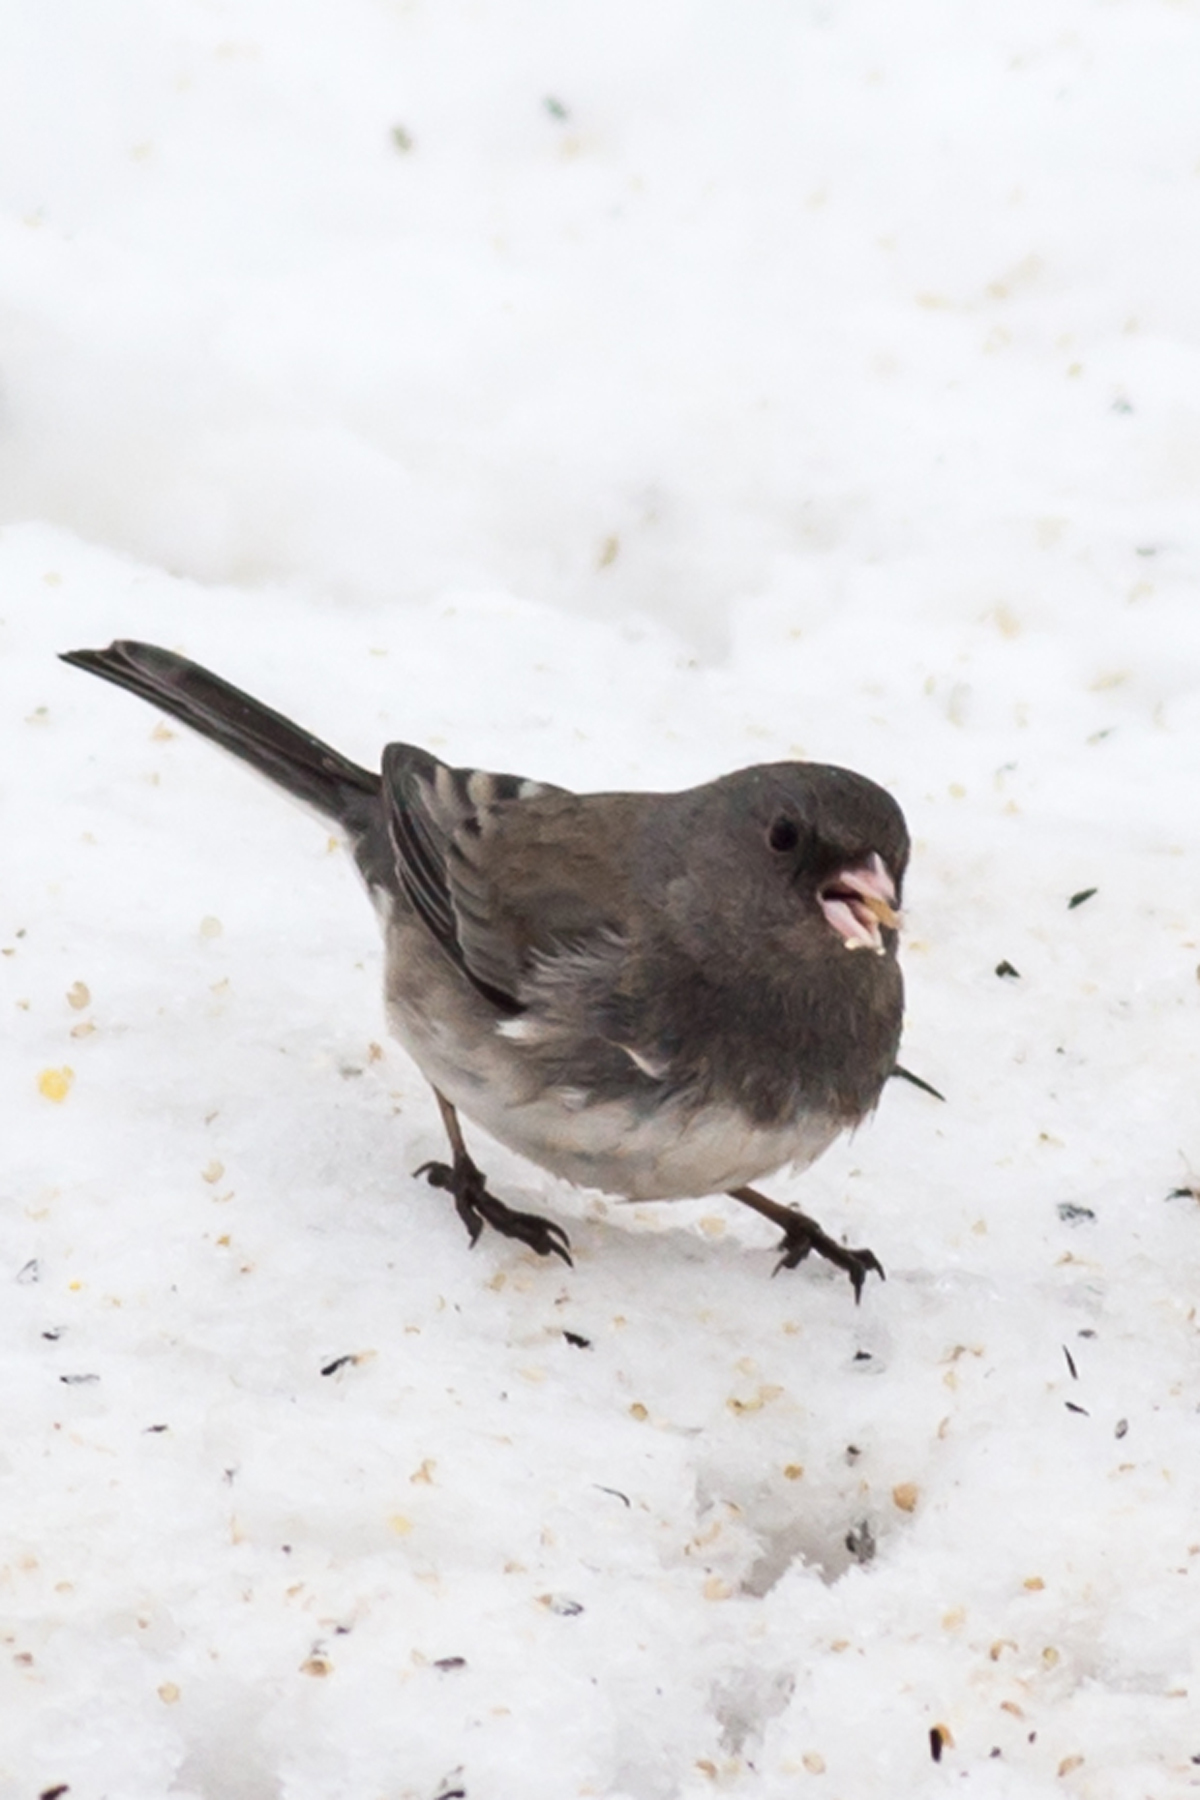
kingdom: Animalia
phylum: Chordata
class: Aves
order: Passeriformes
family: Passerellidae
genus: Junco
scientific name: Junco hyemalis
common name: Dark-eyed junco
